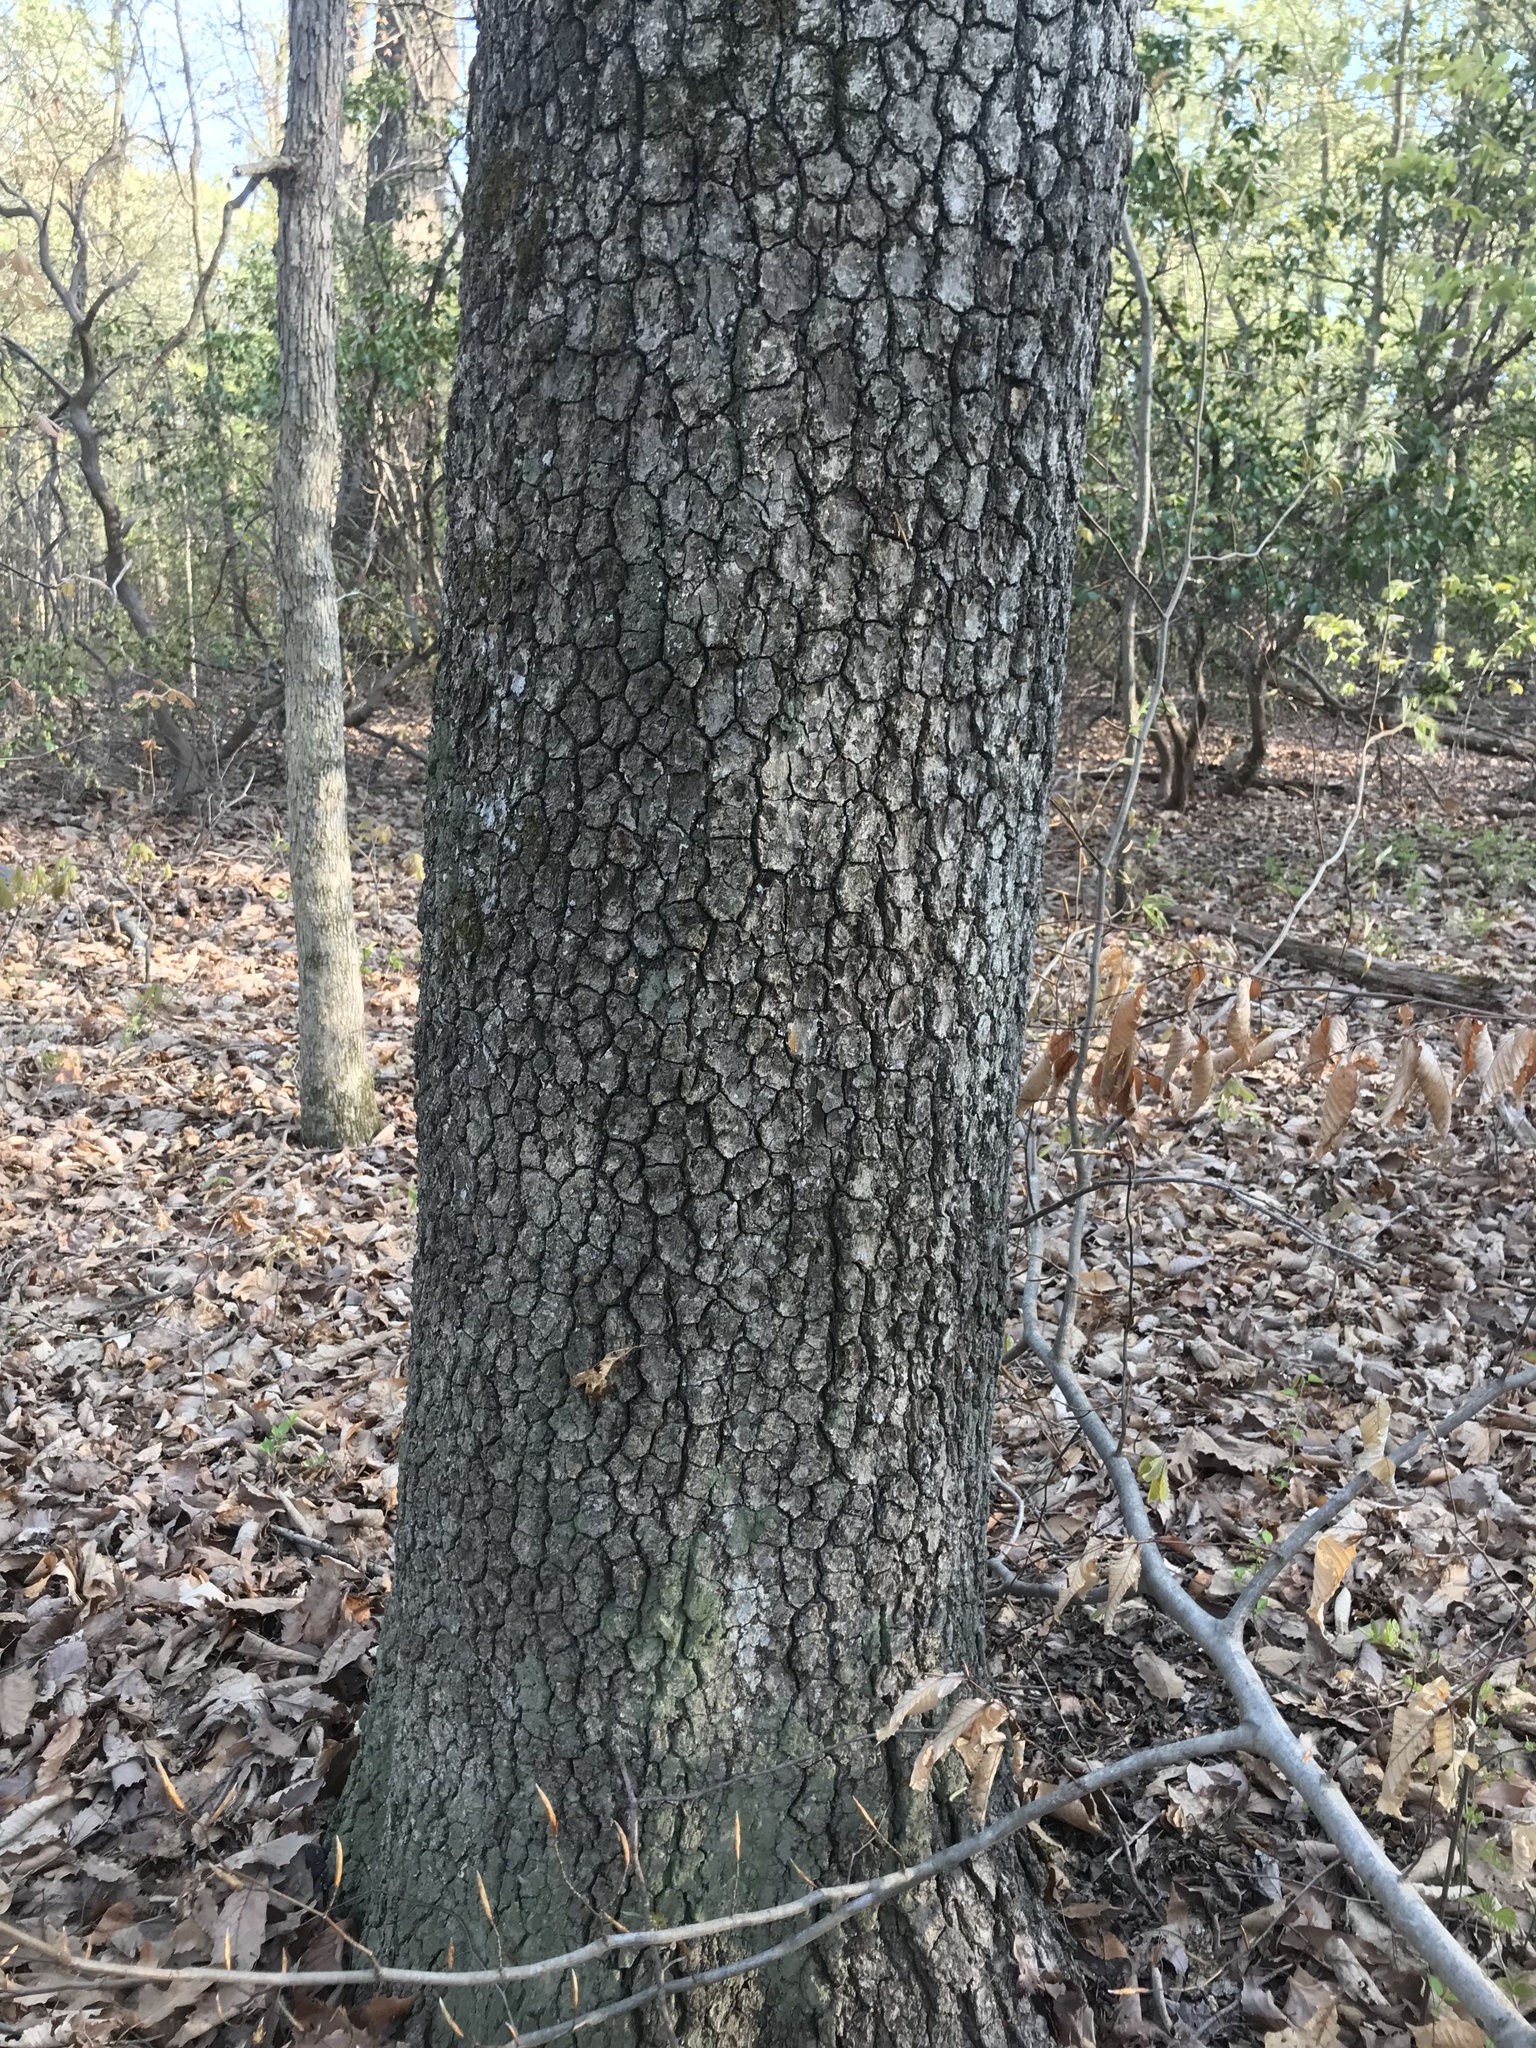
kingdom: Plantae
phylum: Tracheophyta
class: Magnoliopsida
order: Cornales
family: Nyssaceae
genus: Nyssa
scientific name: Nyssa sylvatica
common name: Black tupelo
